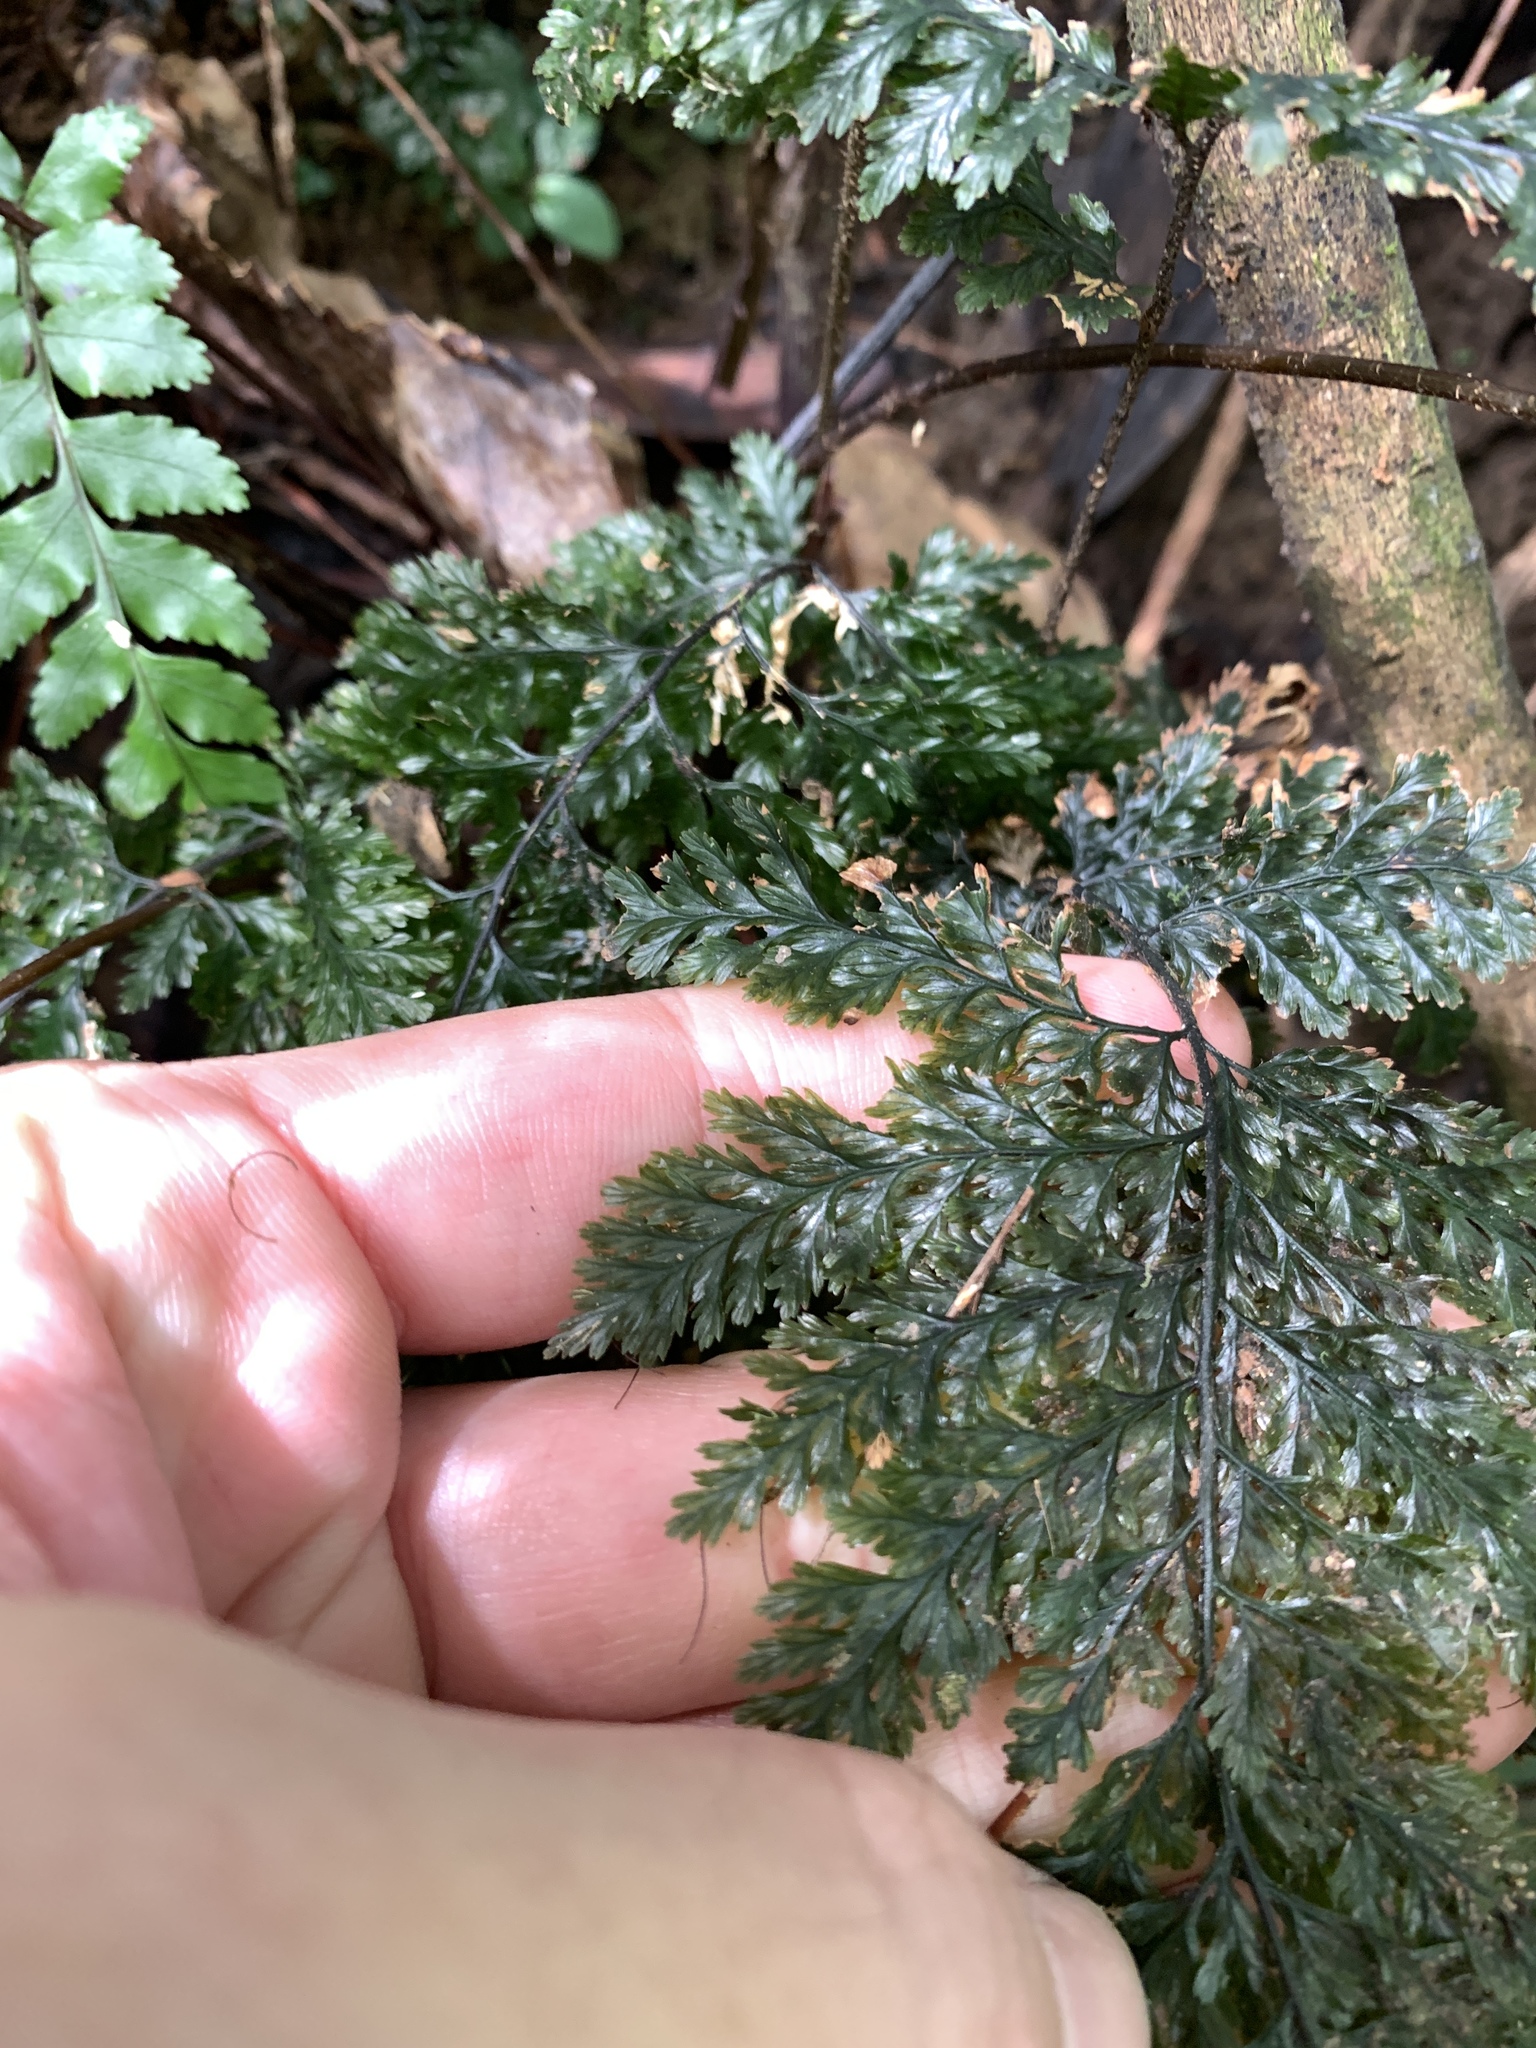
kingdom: Plantae
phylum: Tracheophyta
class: Polypodiopsida
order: Hymenophyllales
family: Hymenophyllaceae
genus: Abrodictyum
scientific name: Abrodictyum obscurum
